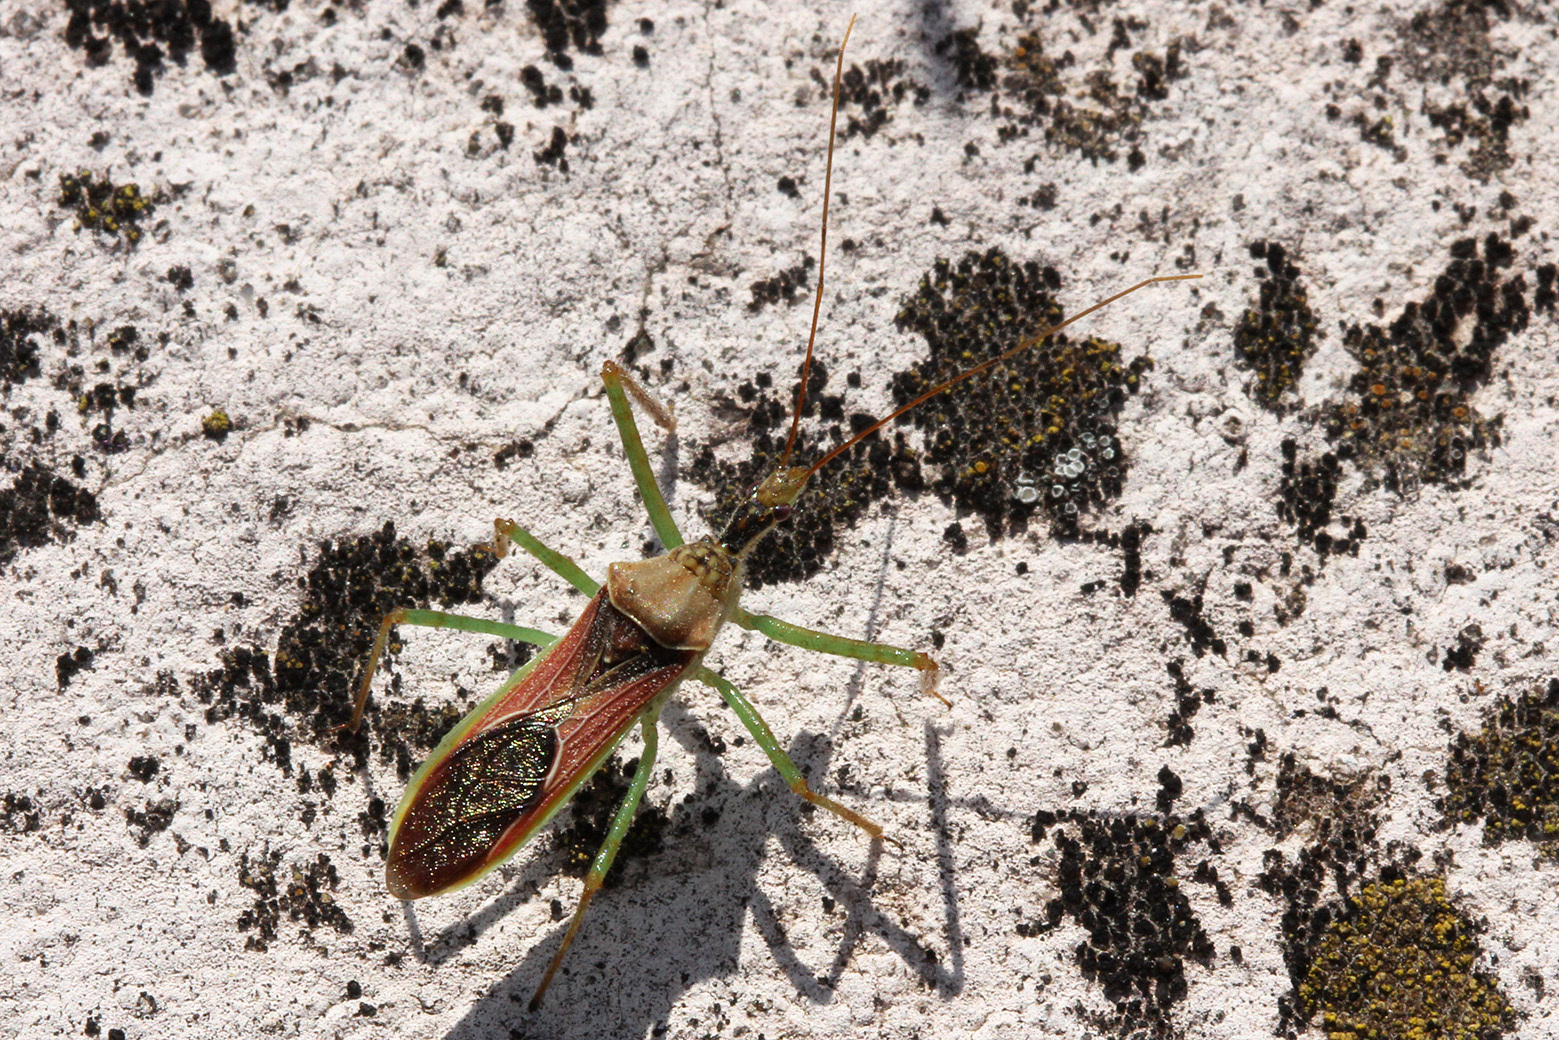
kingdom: Animalia
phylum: Arthropoda
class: Insecta
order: Hemiptera
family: Reduviidae
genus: Zelus
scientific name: Zelus renardii
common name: Assassin bug
